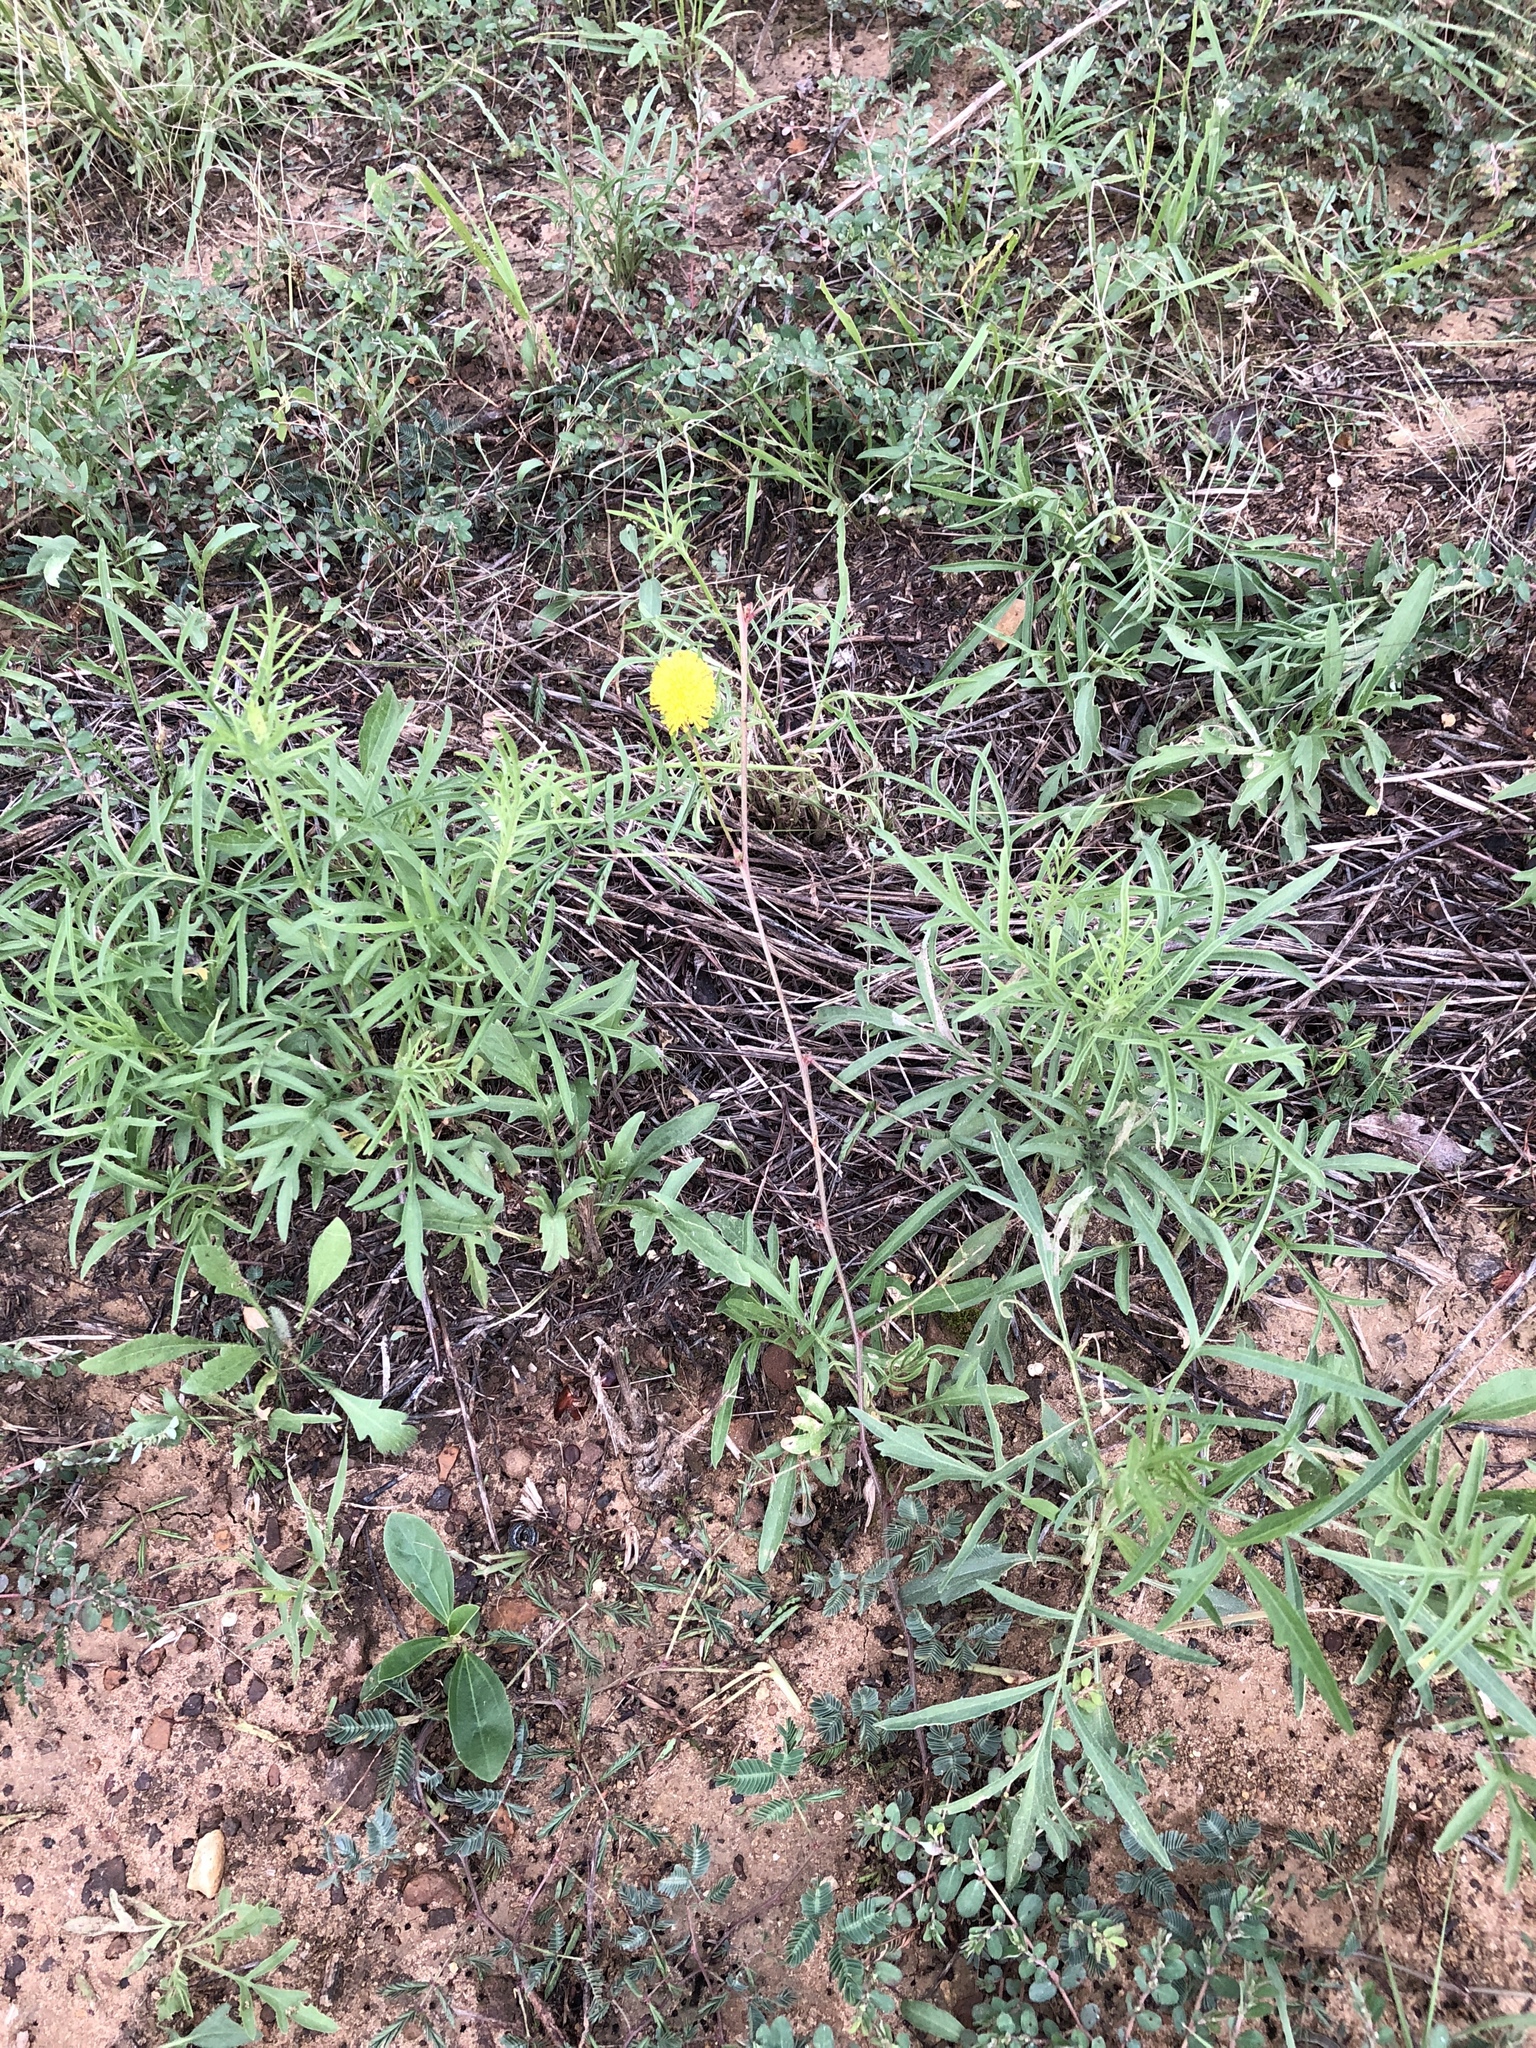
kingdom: Plantae
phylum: Tracheophyta
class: Magnoliopsida
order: Fabales
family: Fabaceae
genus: Neptunia
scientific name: Neptunia lutea
